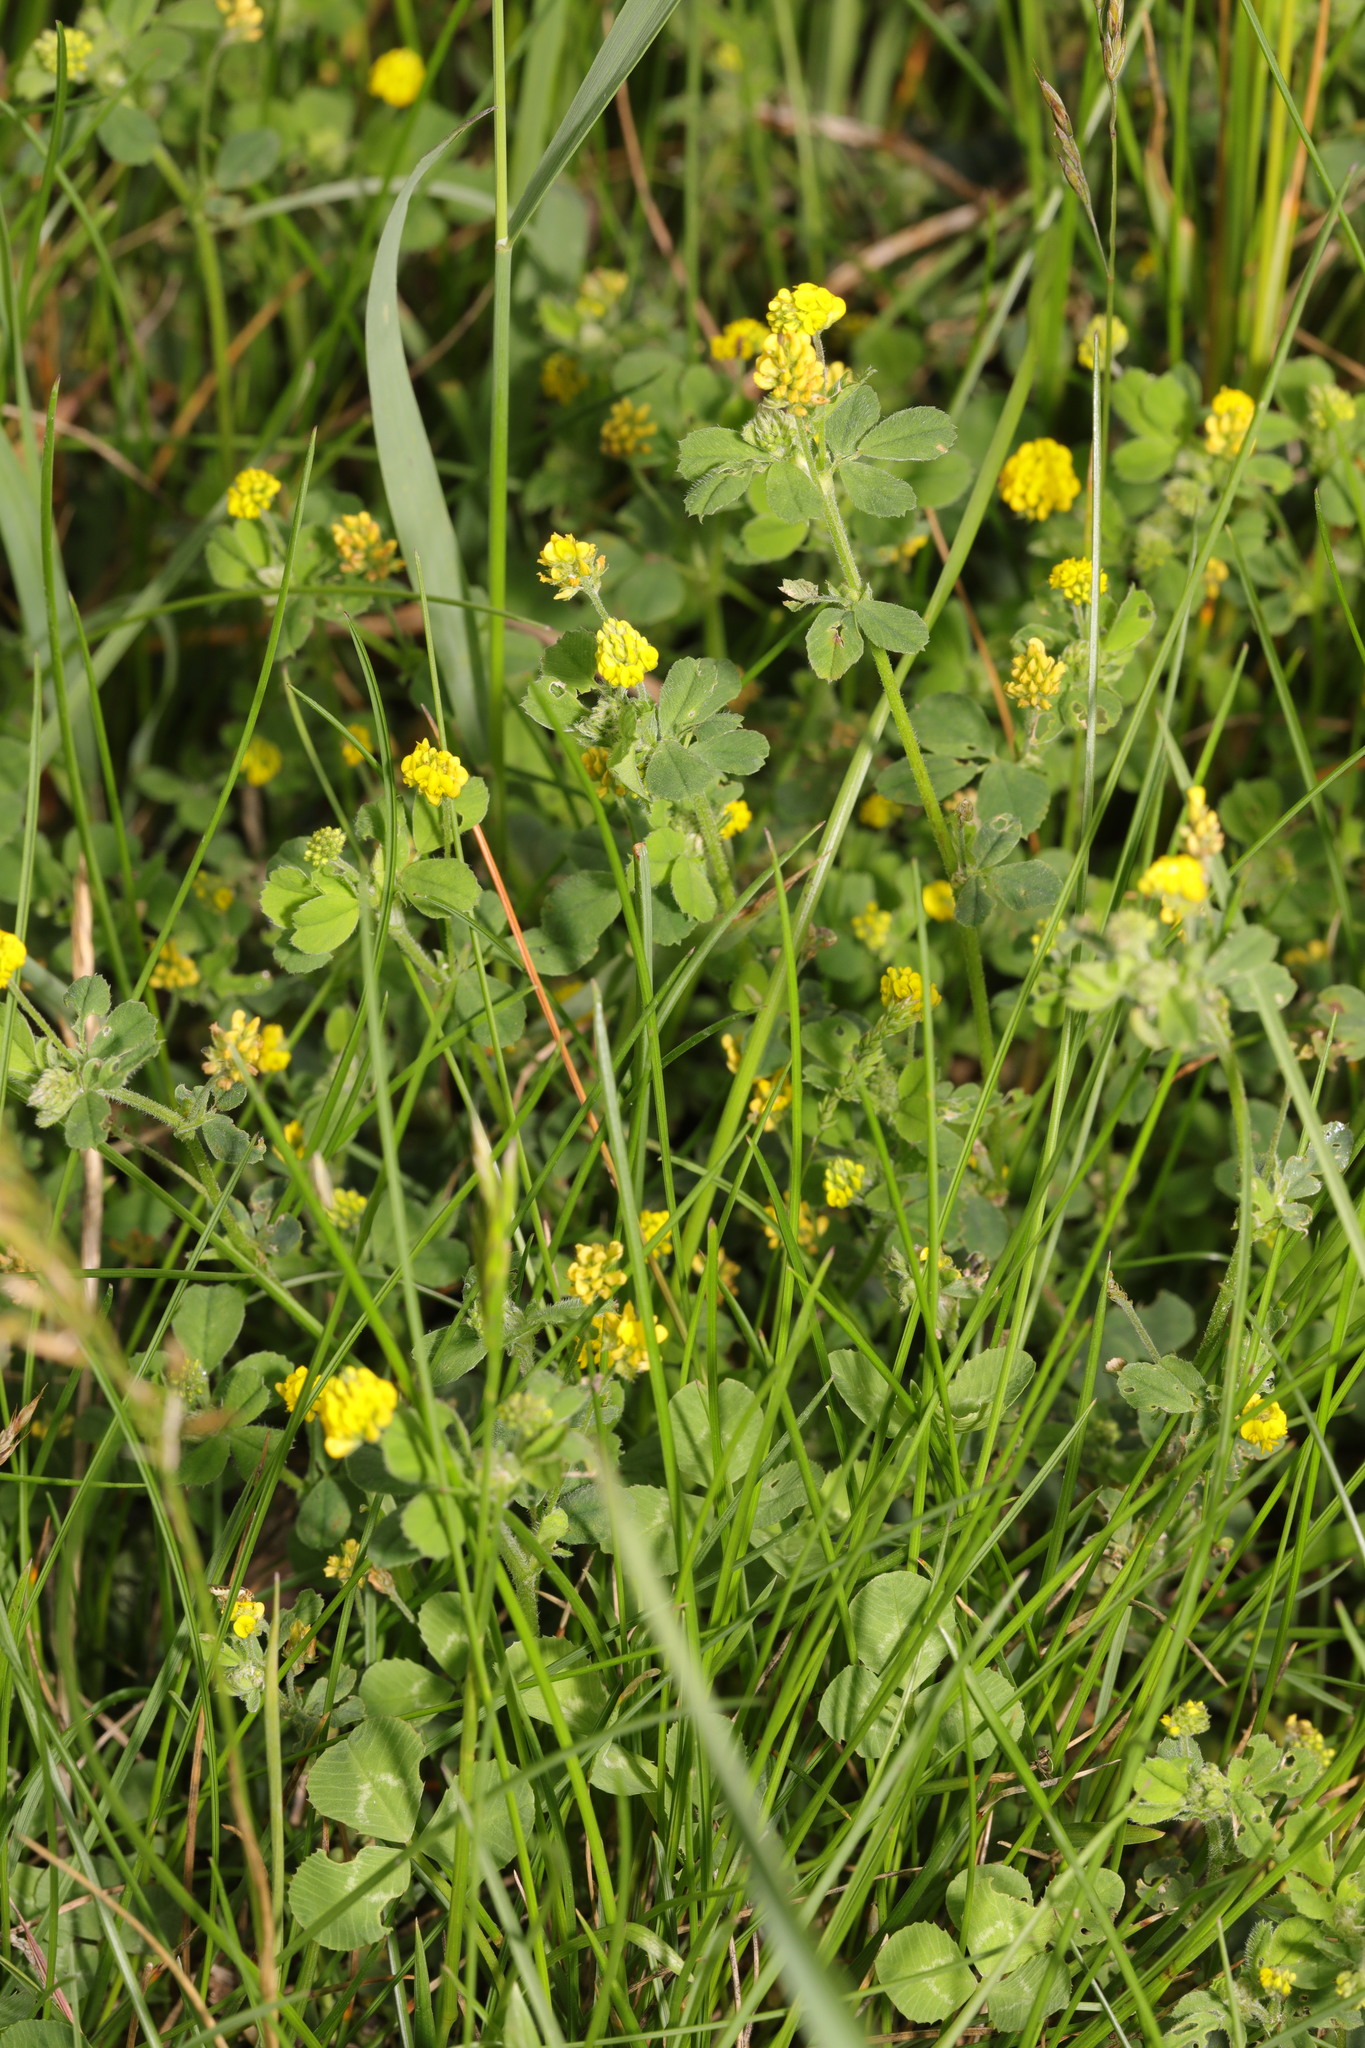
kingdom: Plantae
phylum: Tracheophyta
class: Magnoliopsida
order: Fabales
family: Fabaceae
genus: Medicago
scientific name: Medicago lupulina
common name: Black medick
